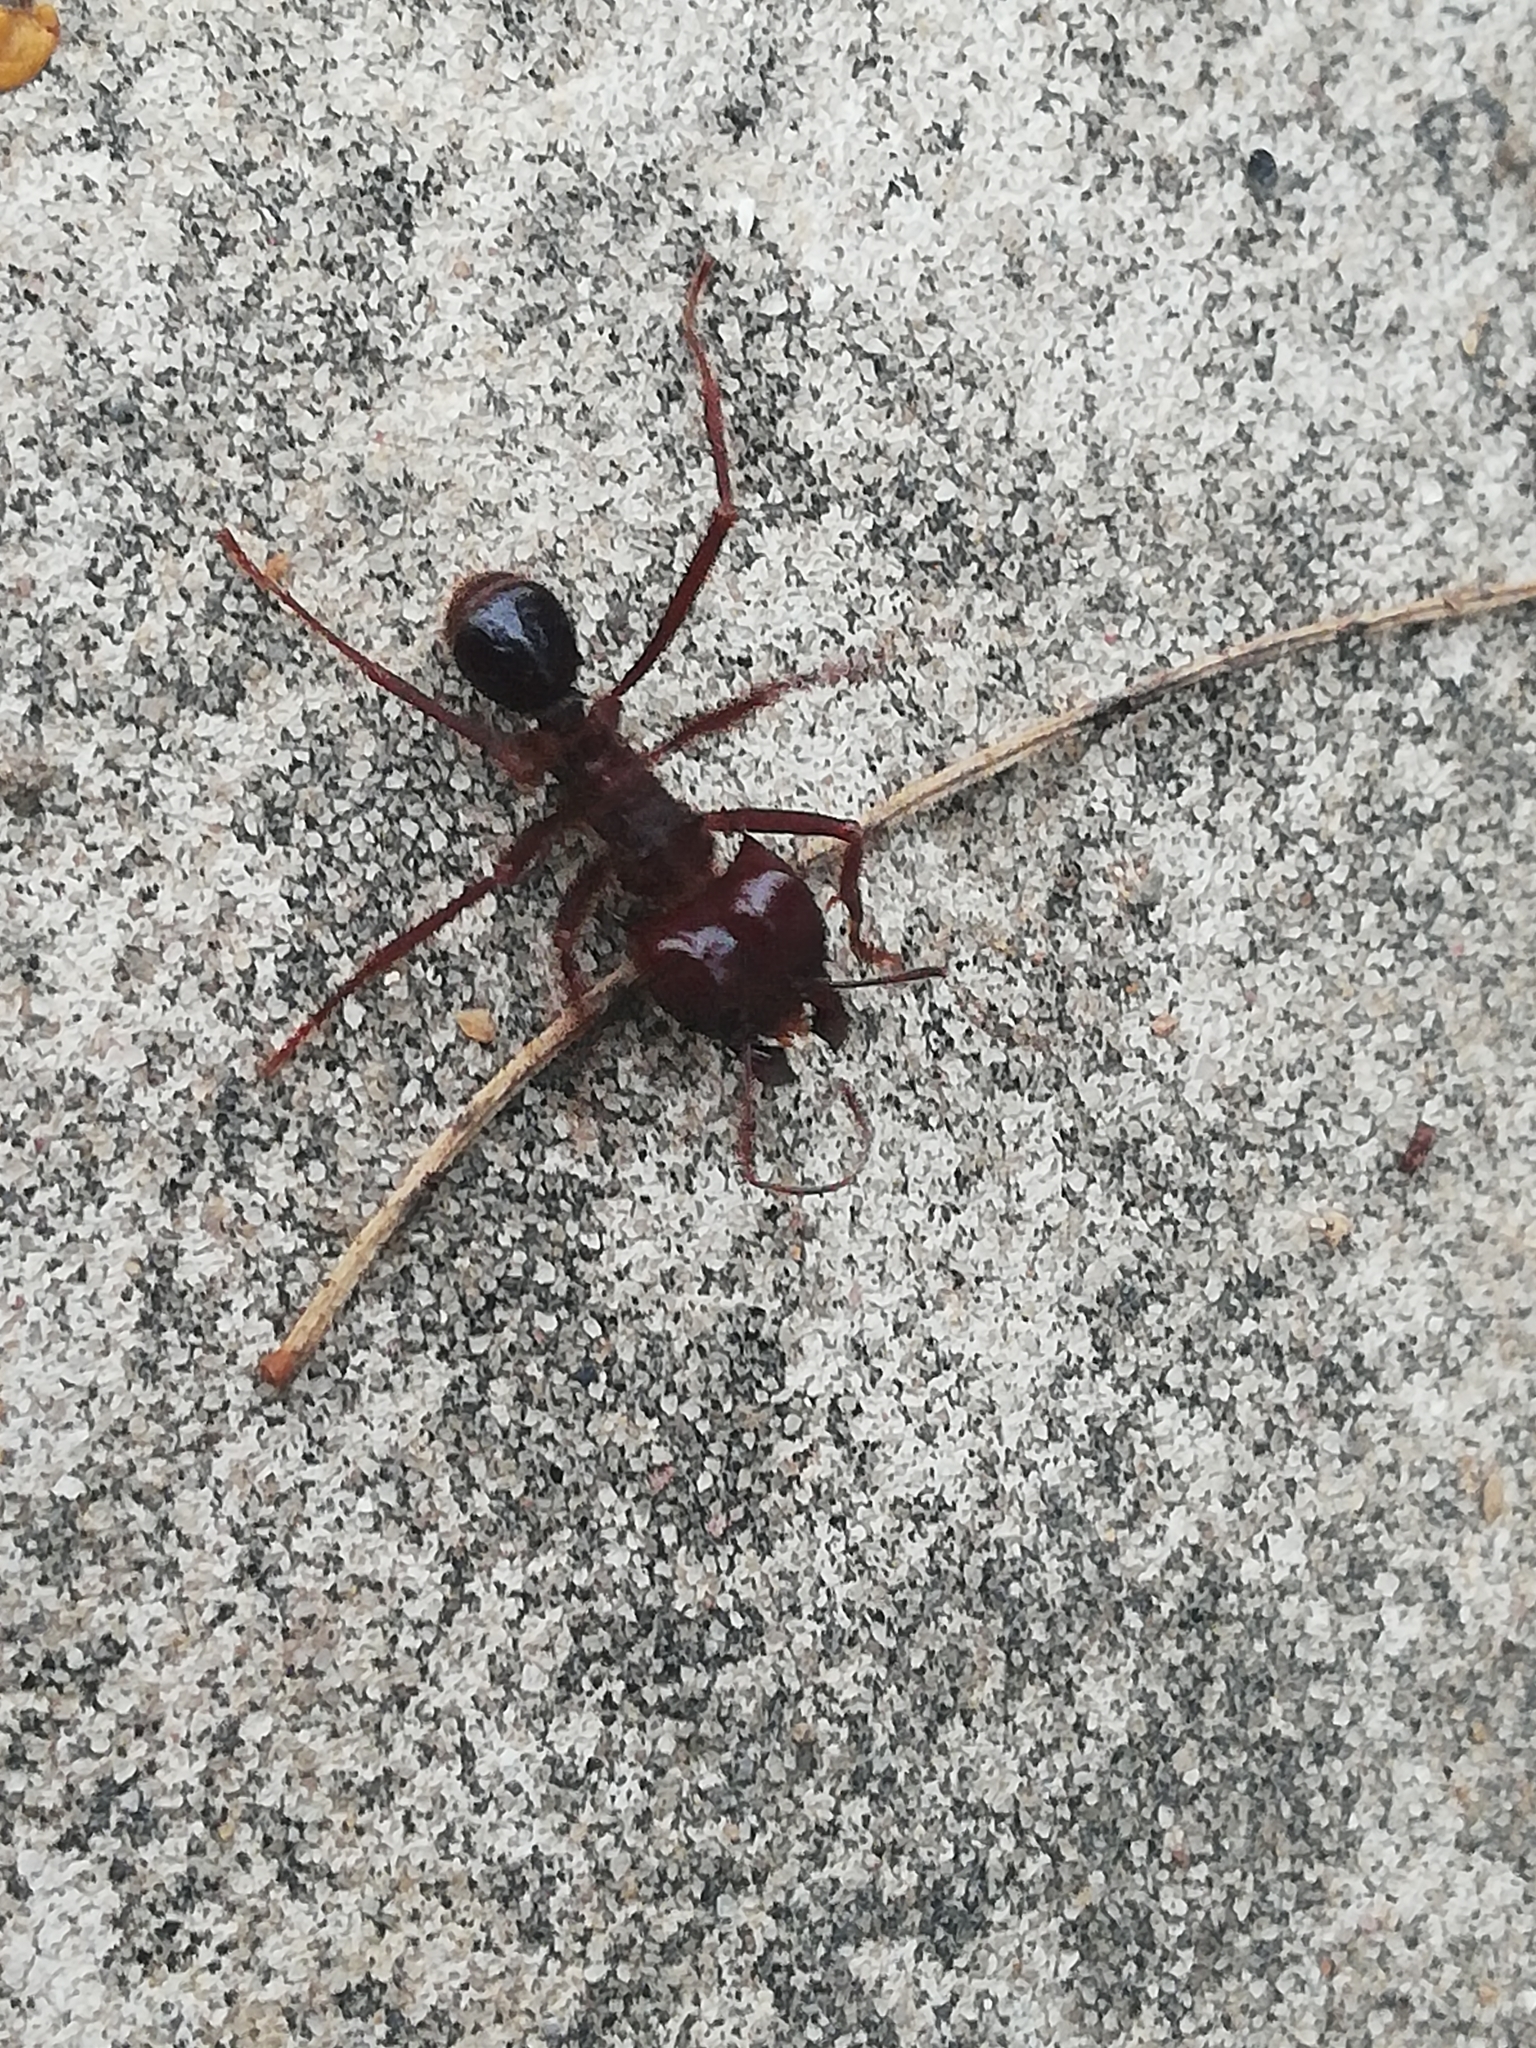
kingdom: Animalia
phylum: Arthropoda
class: Insecta
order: Hymenoptera
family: Formicidae
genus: Atta
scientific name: Atta mexicana
